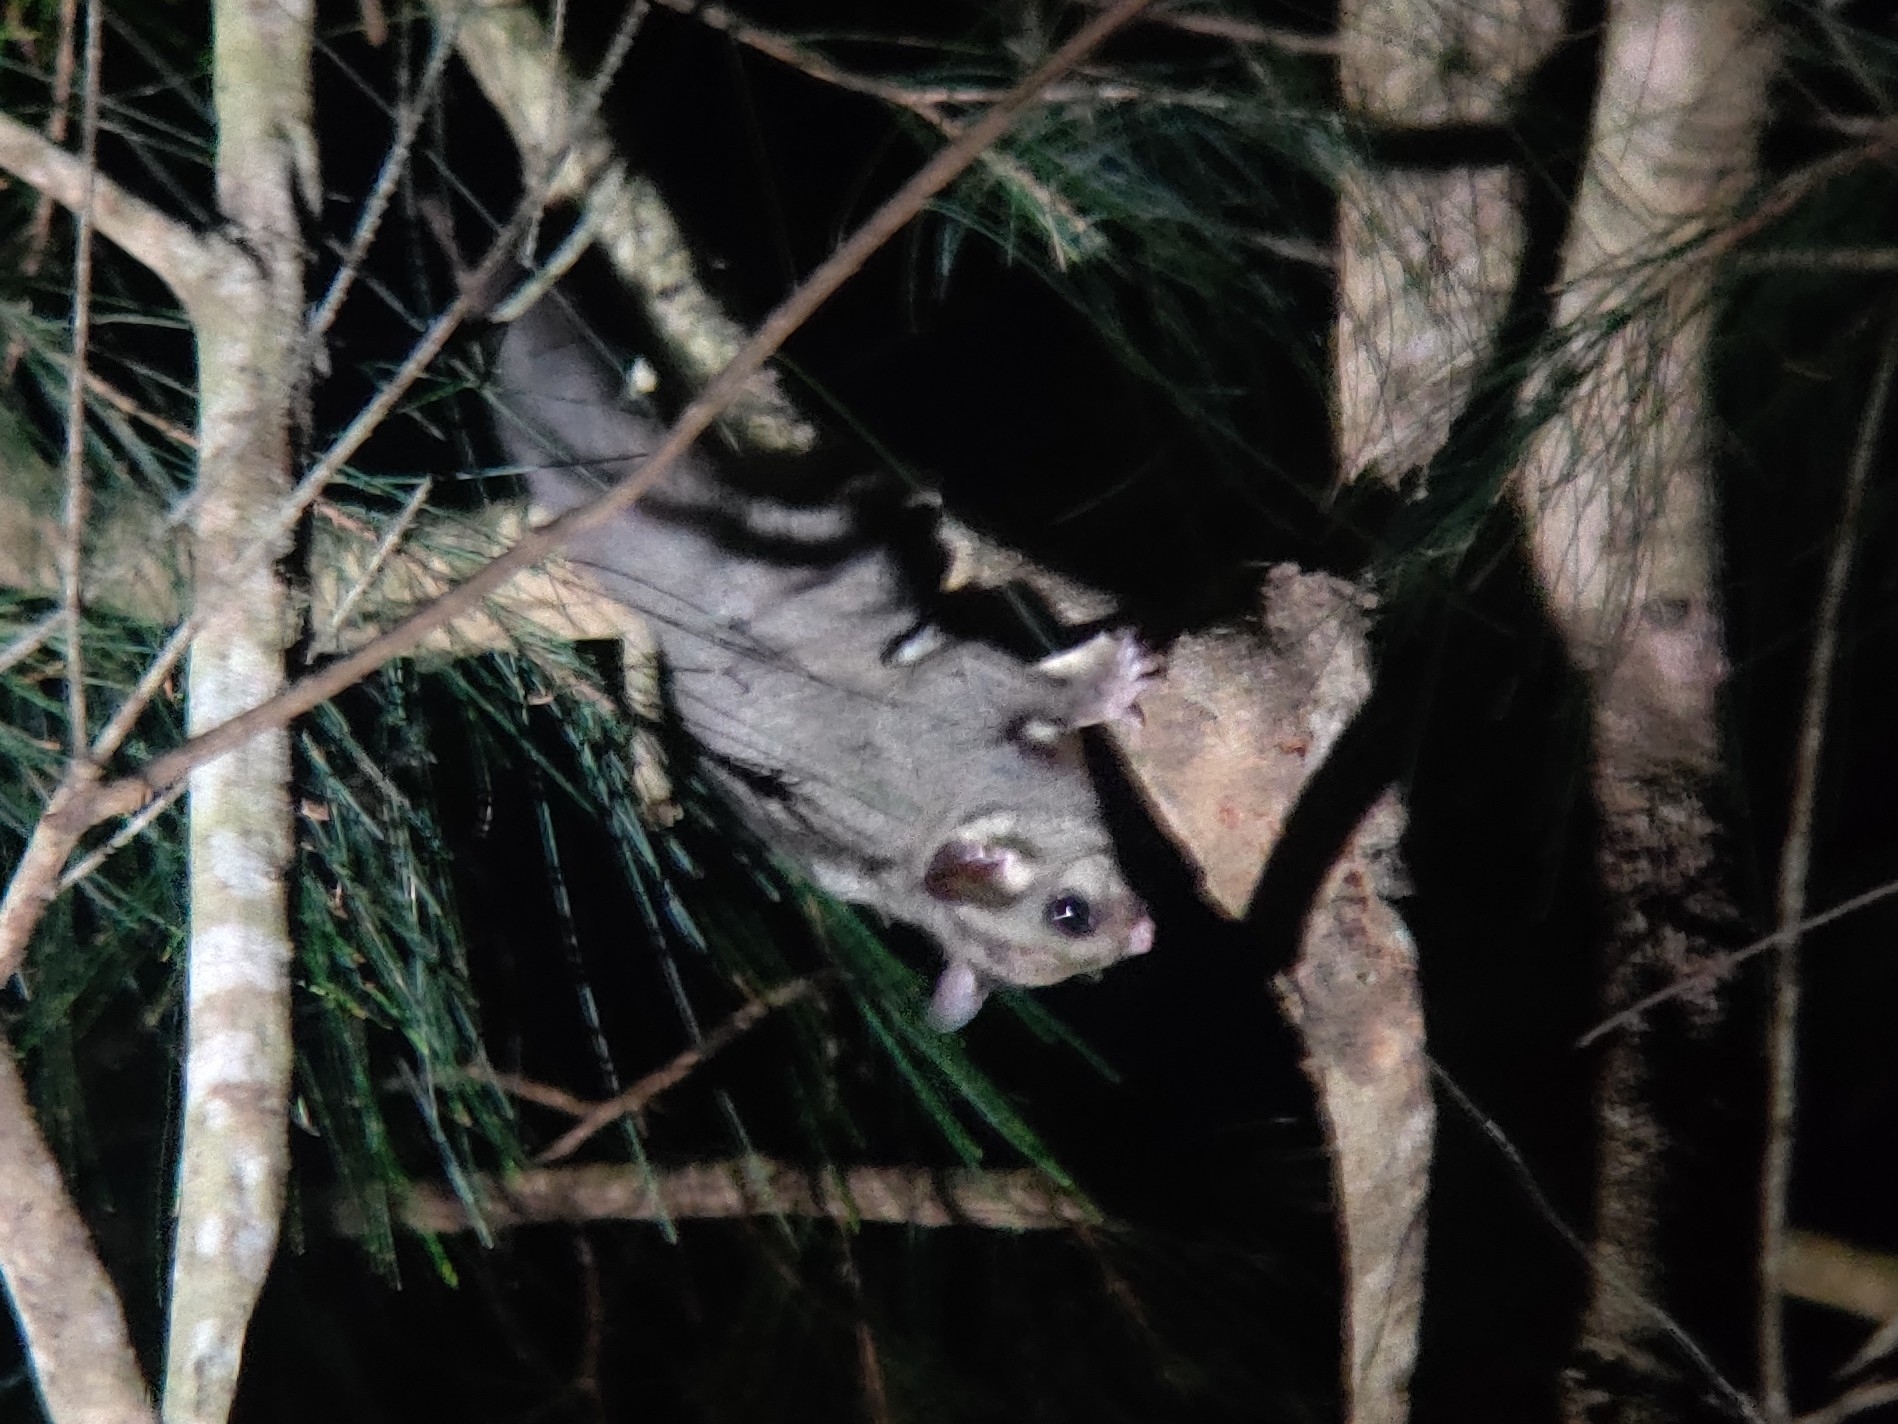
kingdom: Animalia
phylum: Chordata
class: Mammalia
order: Diprotodontia
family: Petauridae
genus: Petaurus
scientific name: Petaurus breviceps
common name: Sugar glider
